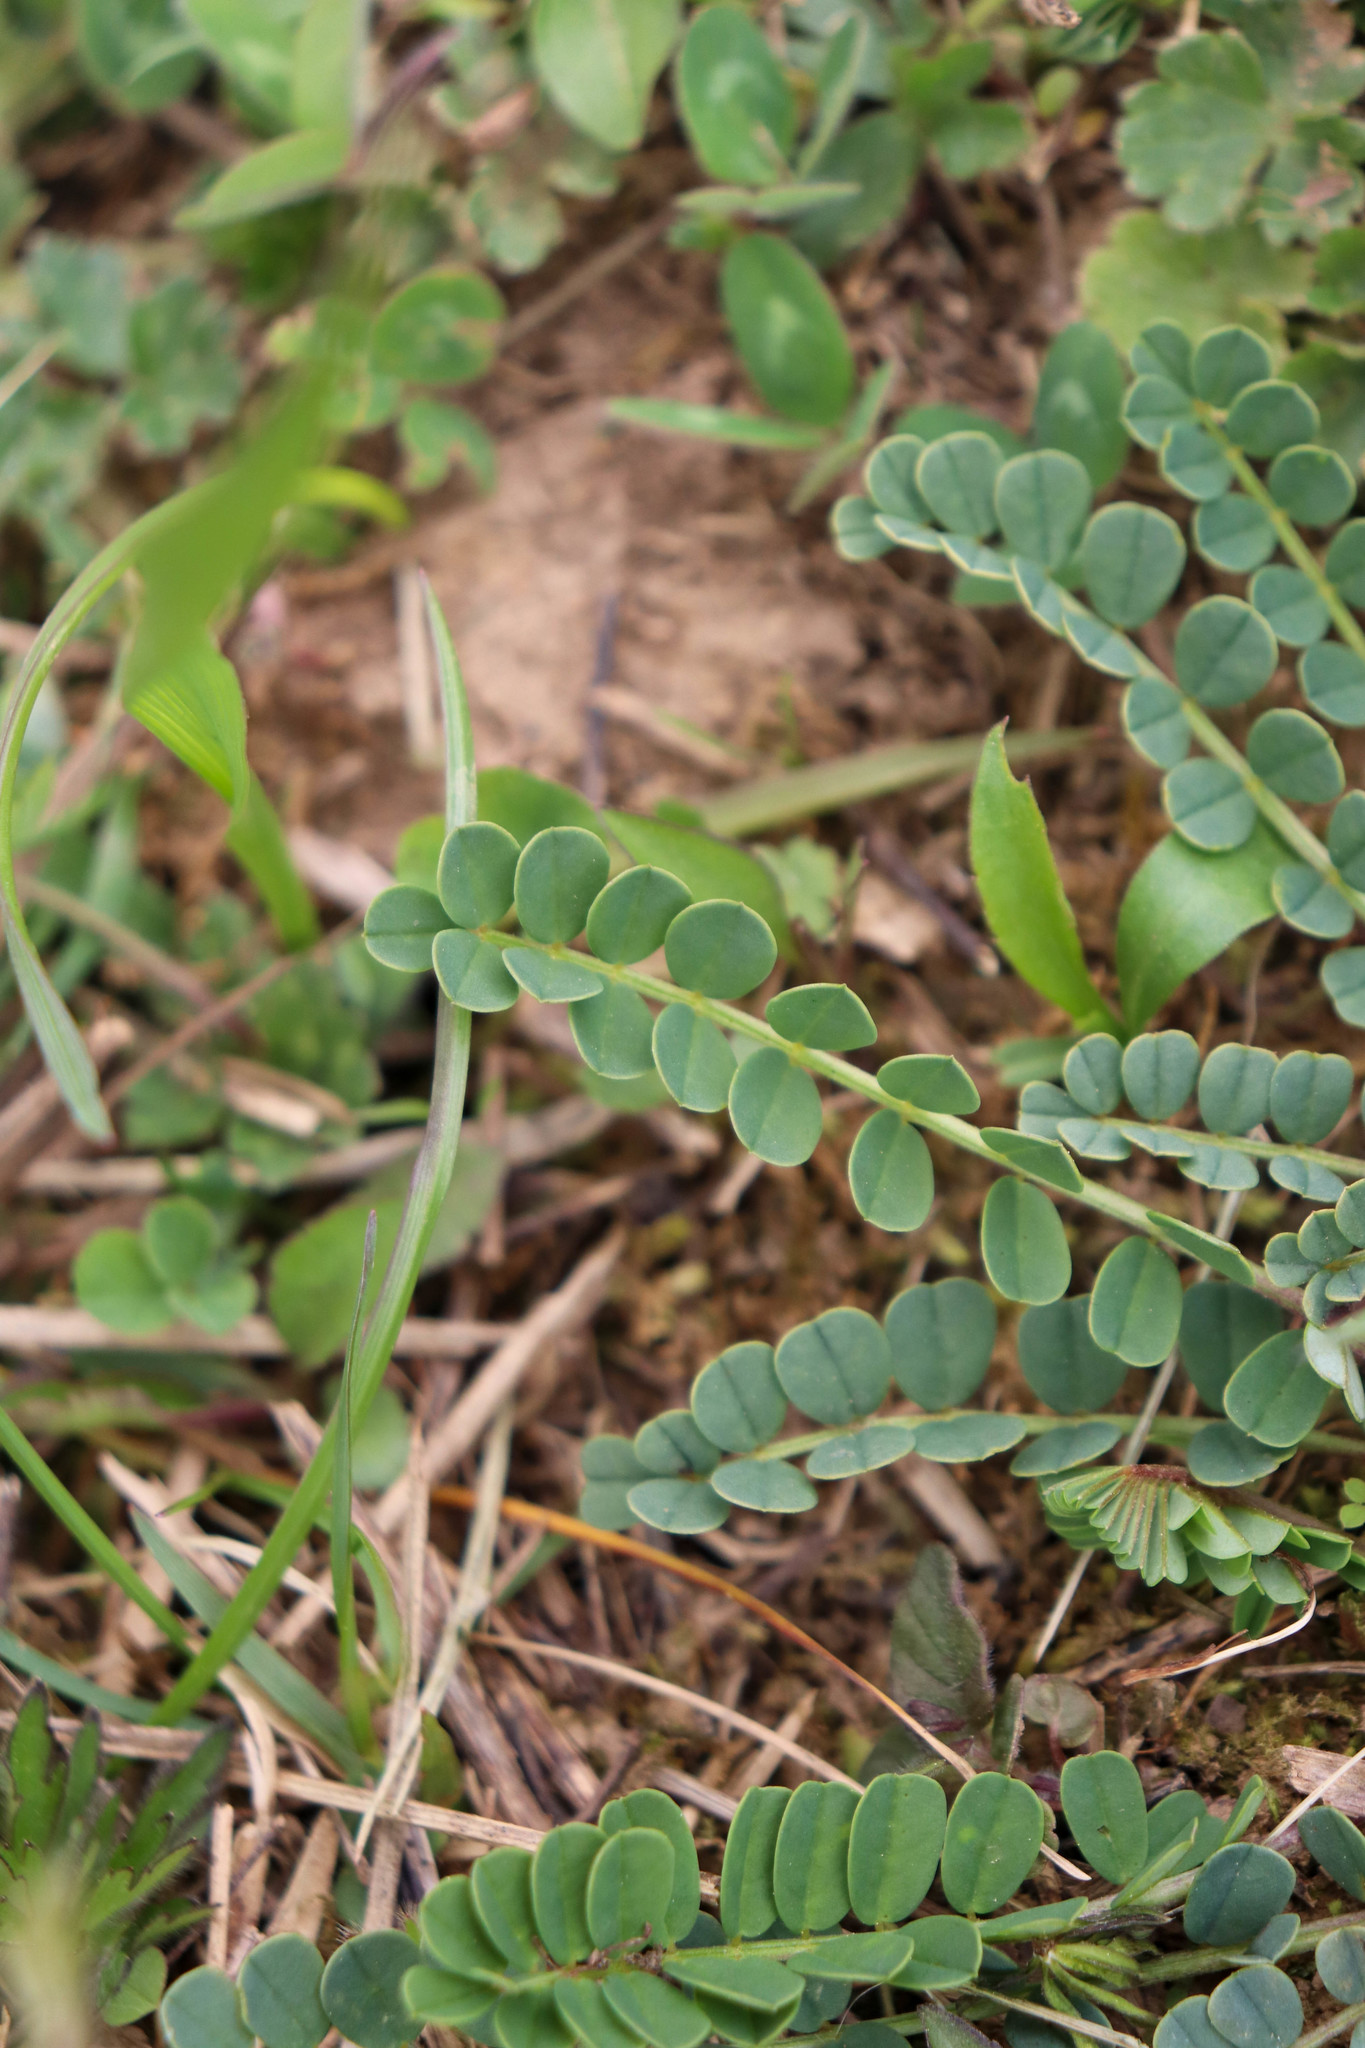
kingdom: Plantae
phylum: Tracheophyta
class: Magnoliopsida
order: Fabales
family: Fabaceae
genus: Coronilla
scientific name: Coronilla varia
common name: Crownvetch
